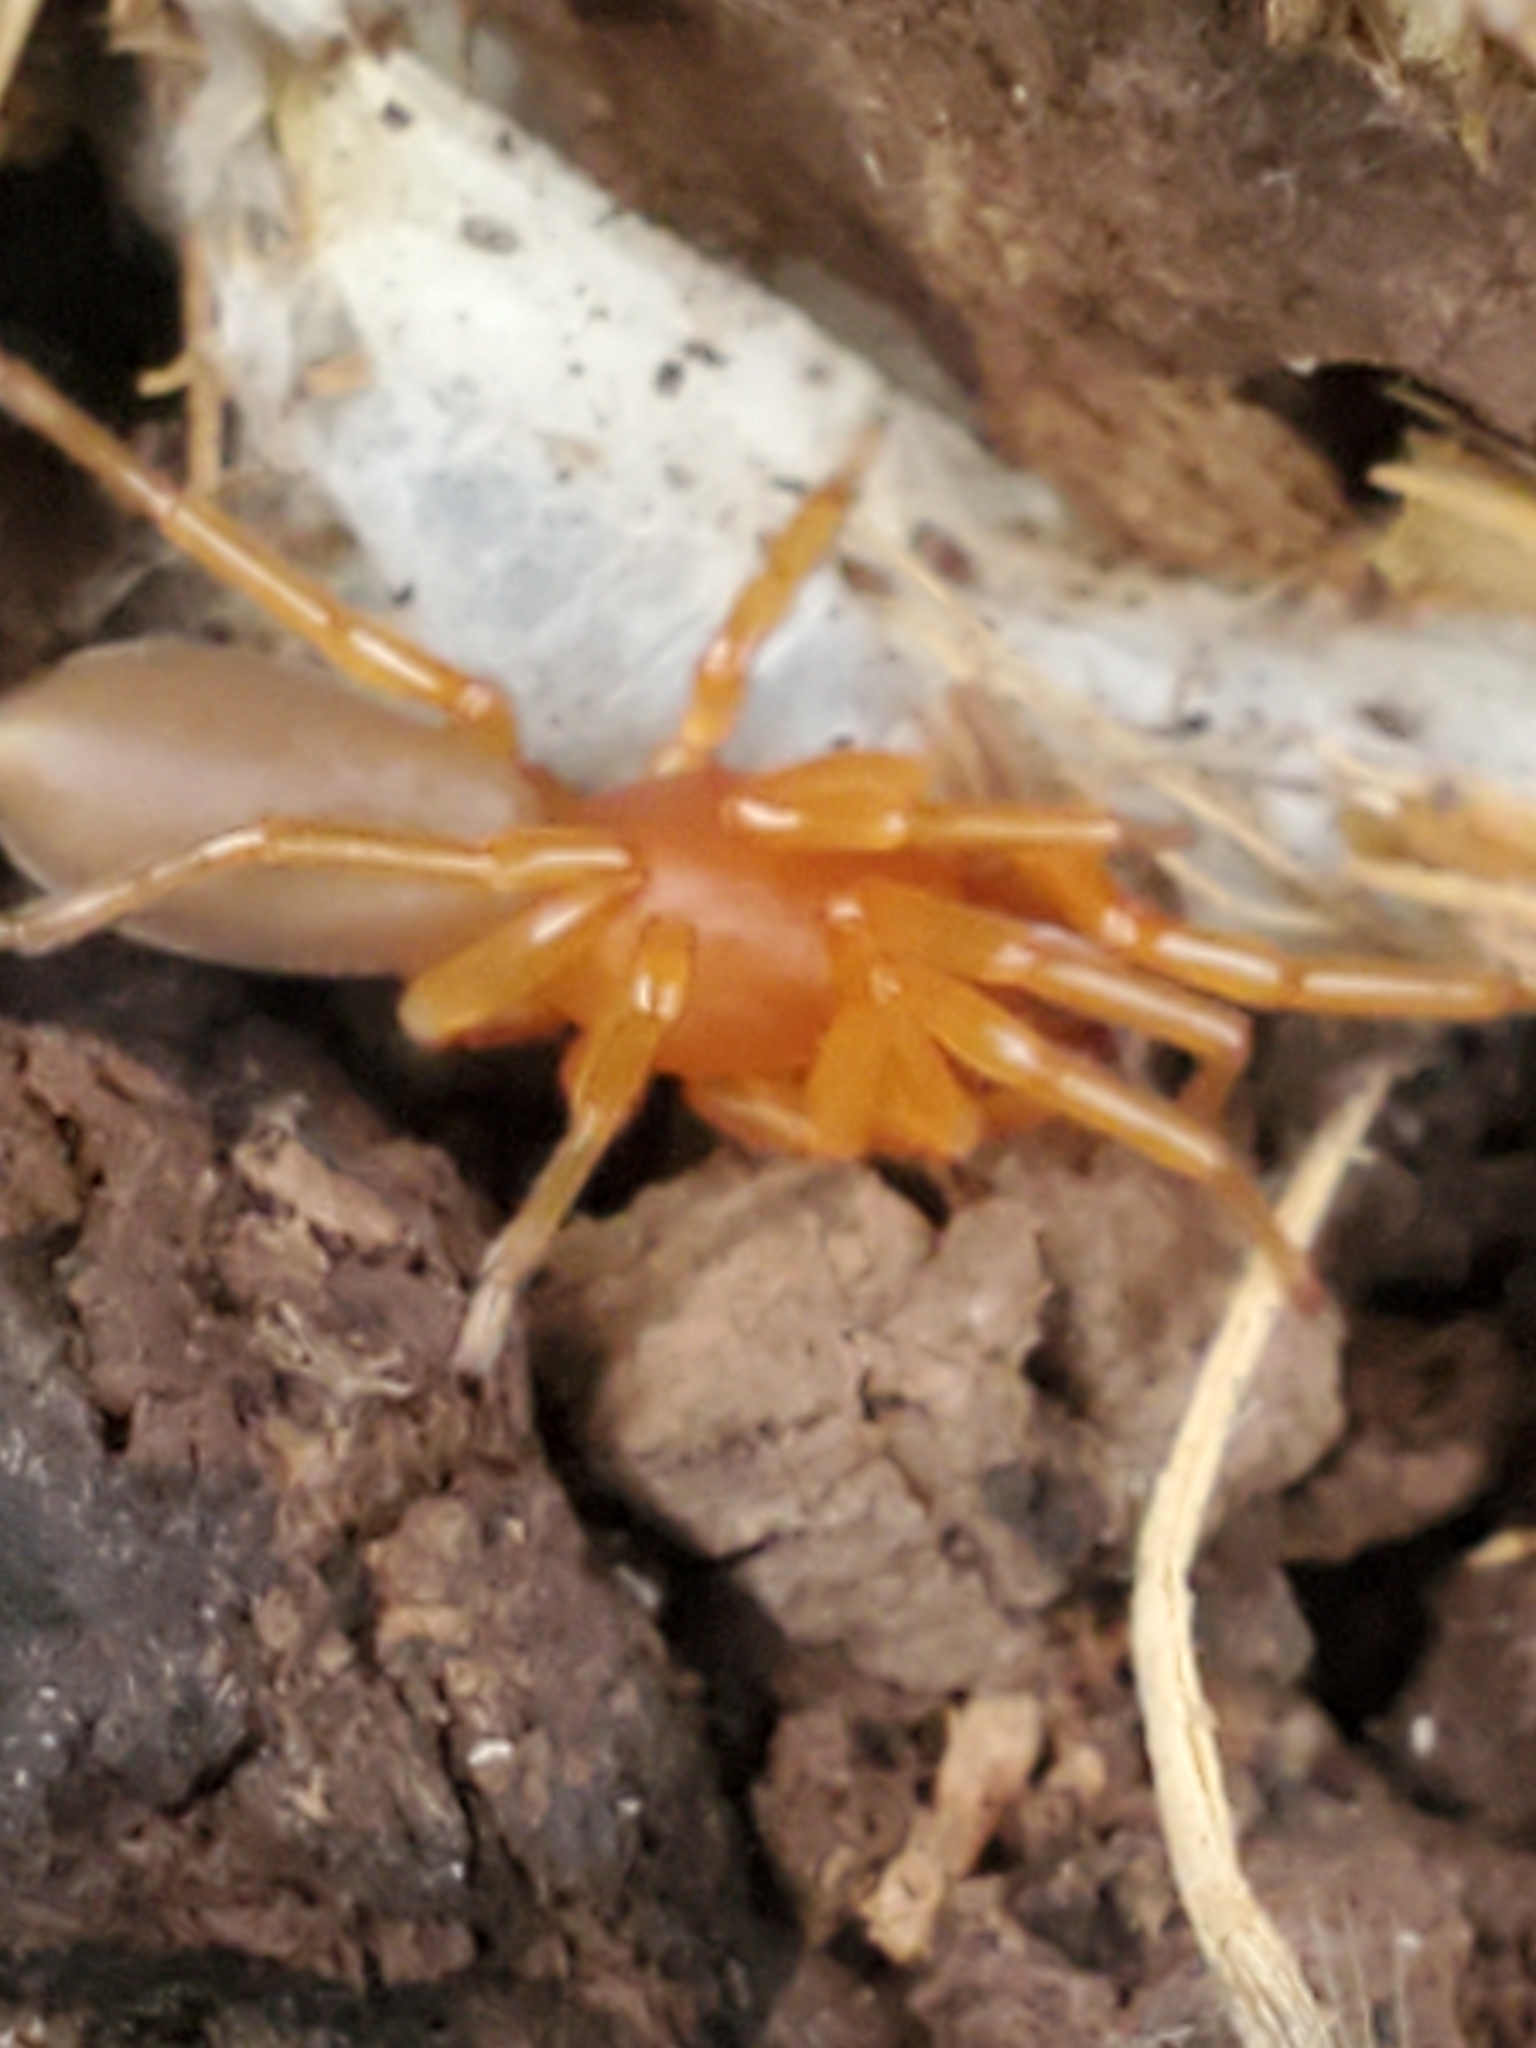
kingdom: Animalia
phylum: Arthropoda
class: Arachnida
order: Araneae
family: Dysderidae
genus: Dysdera
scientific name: Dysdera crocata
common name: Woodlouse spider
